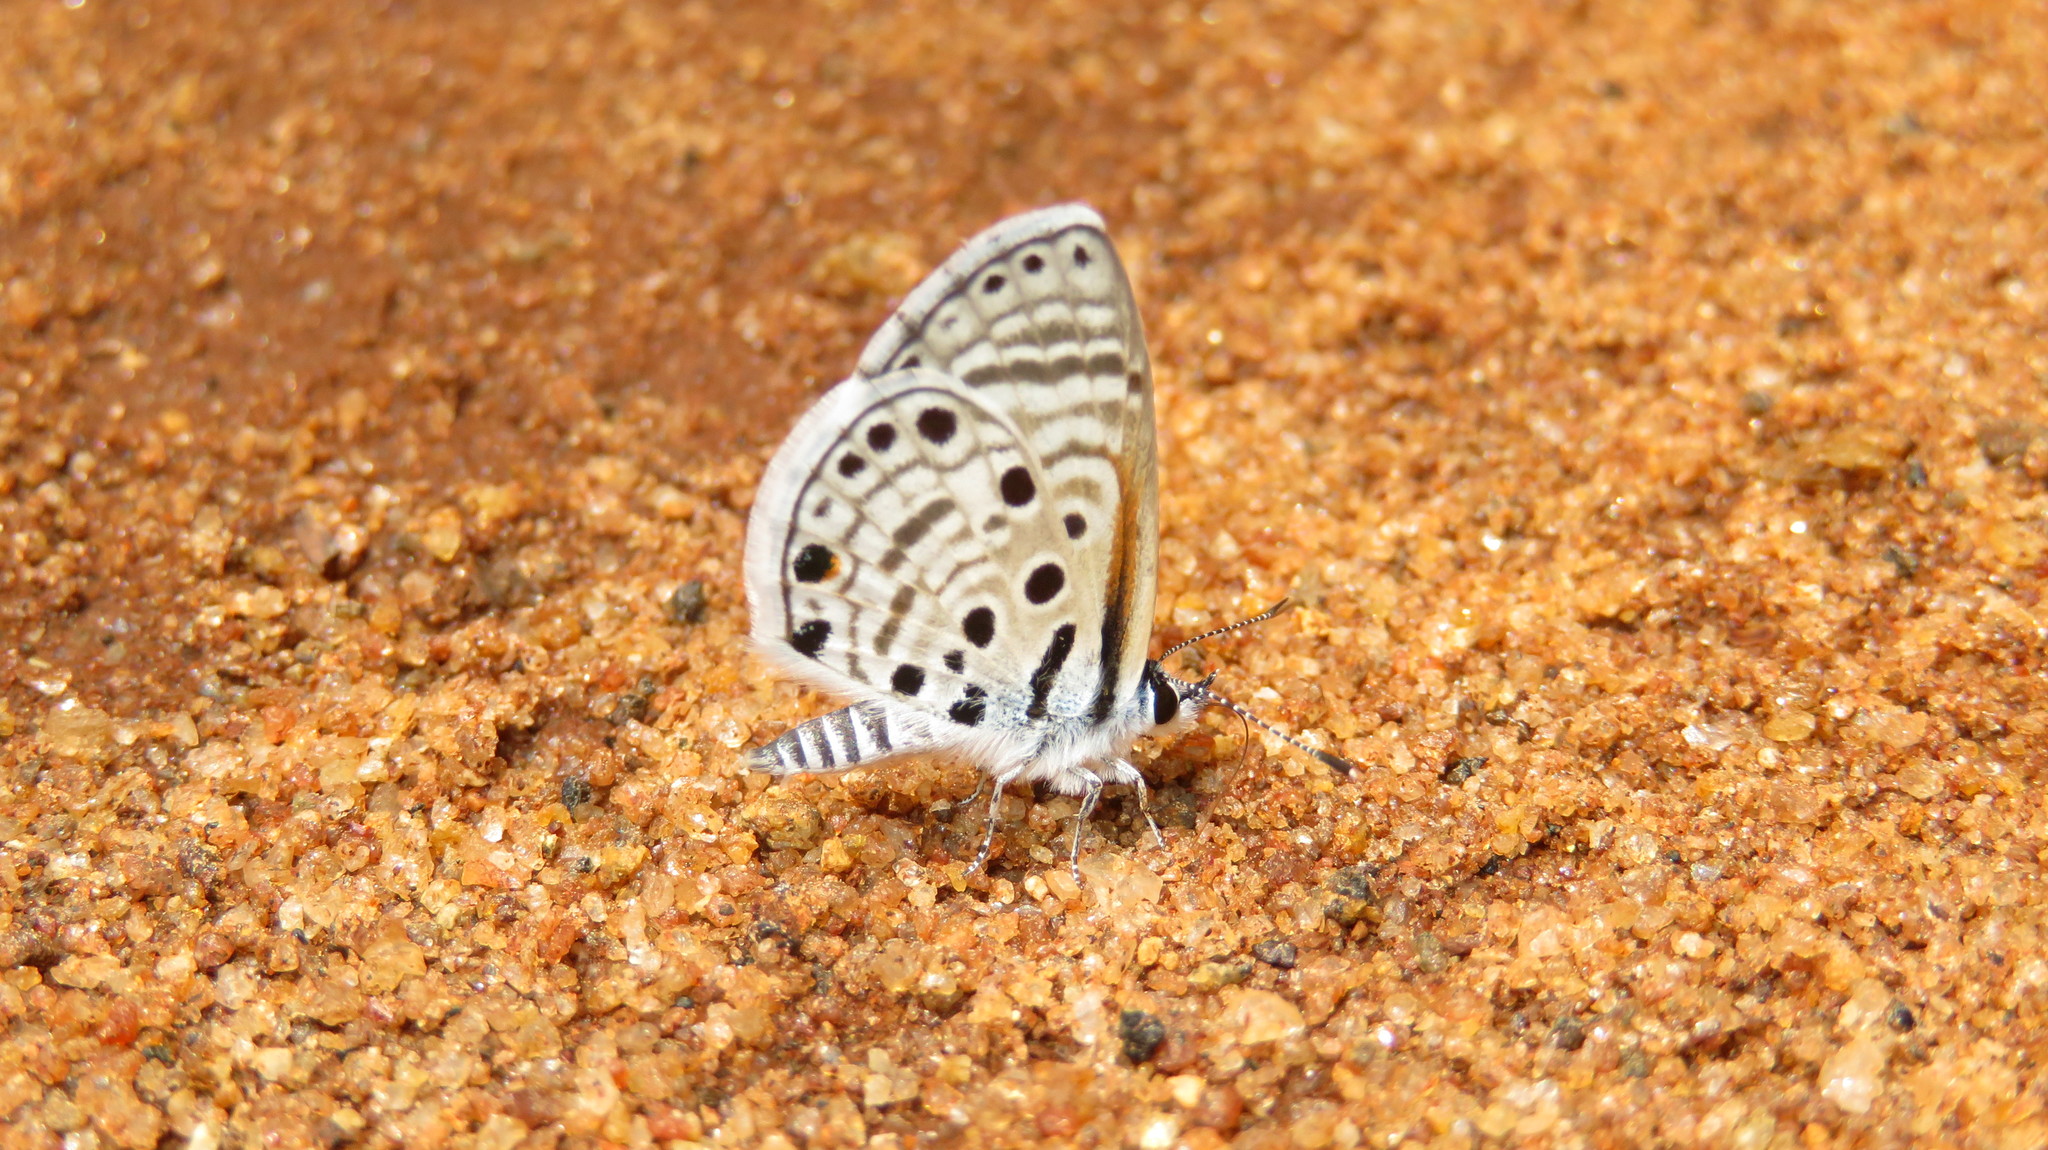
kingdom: Animalia
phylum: Arthropoda
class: Insecta
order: Lepidoptera
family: Lycaenidae
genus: Azanus
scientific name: Azanus jesous
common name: African babul blue
